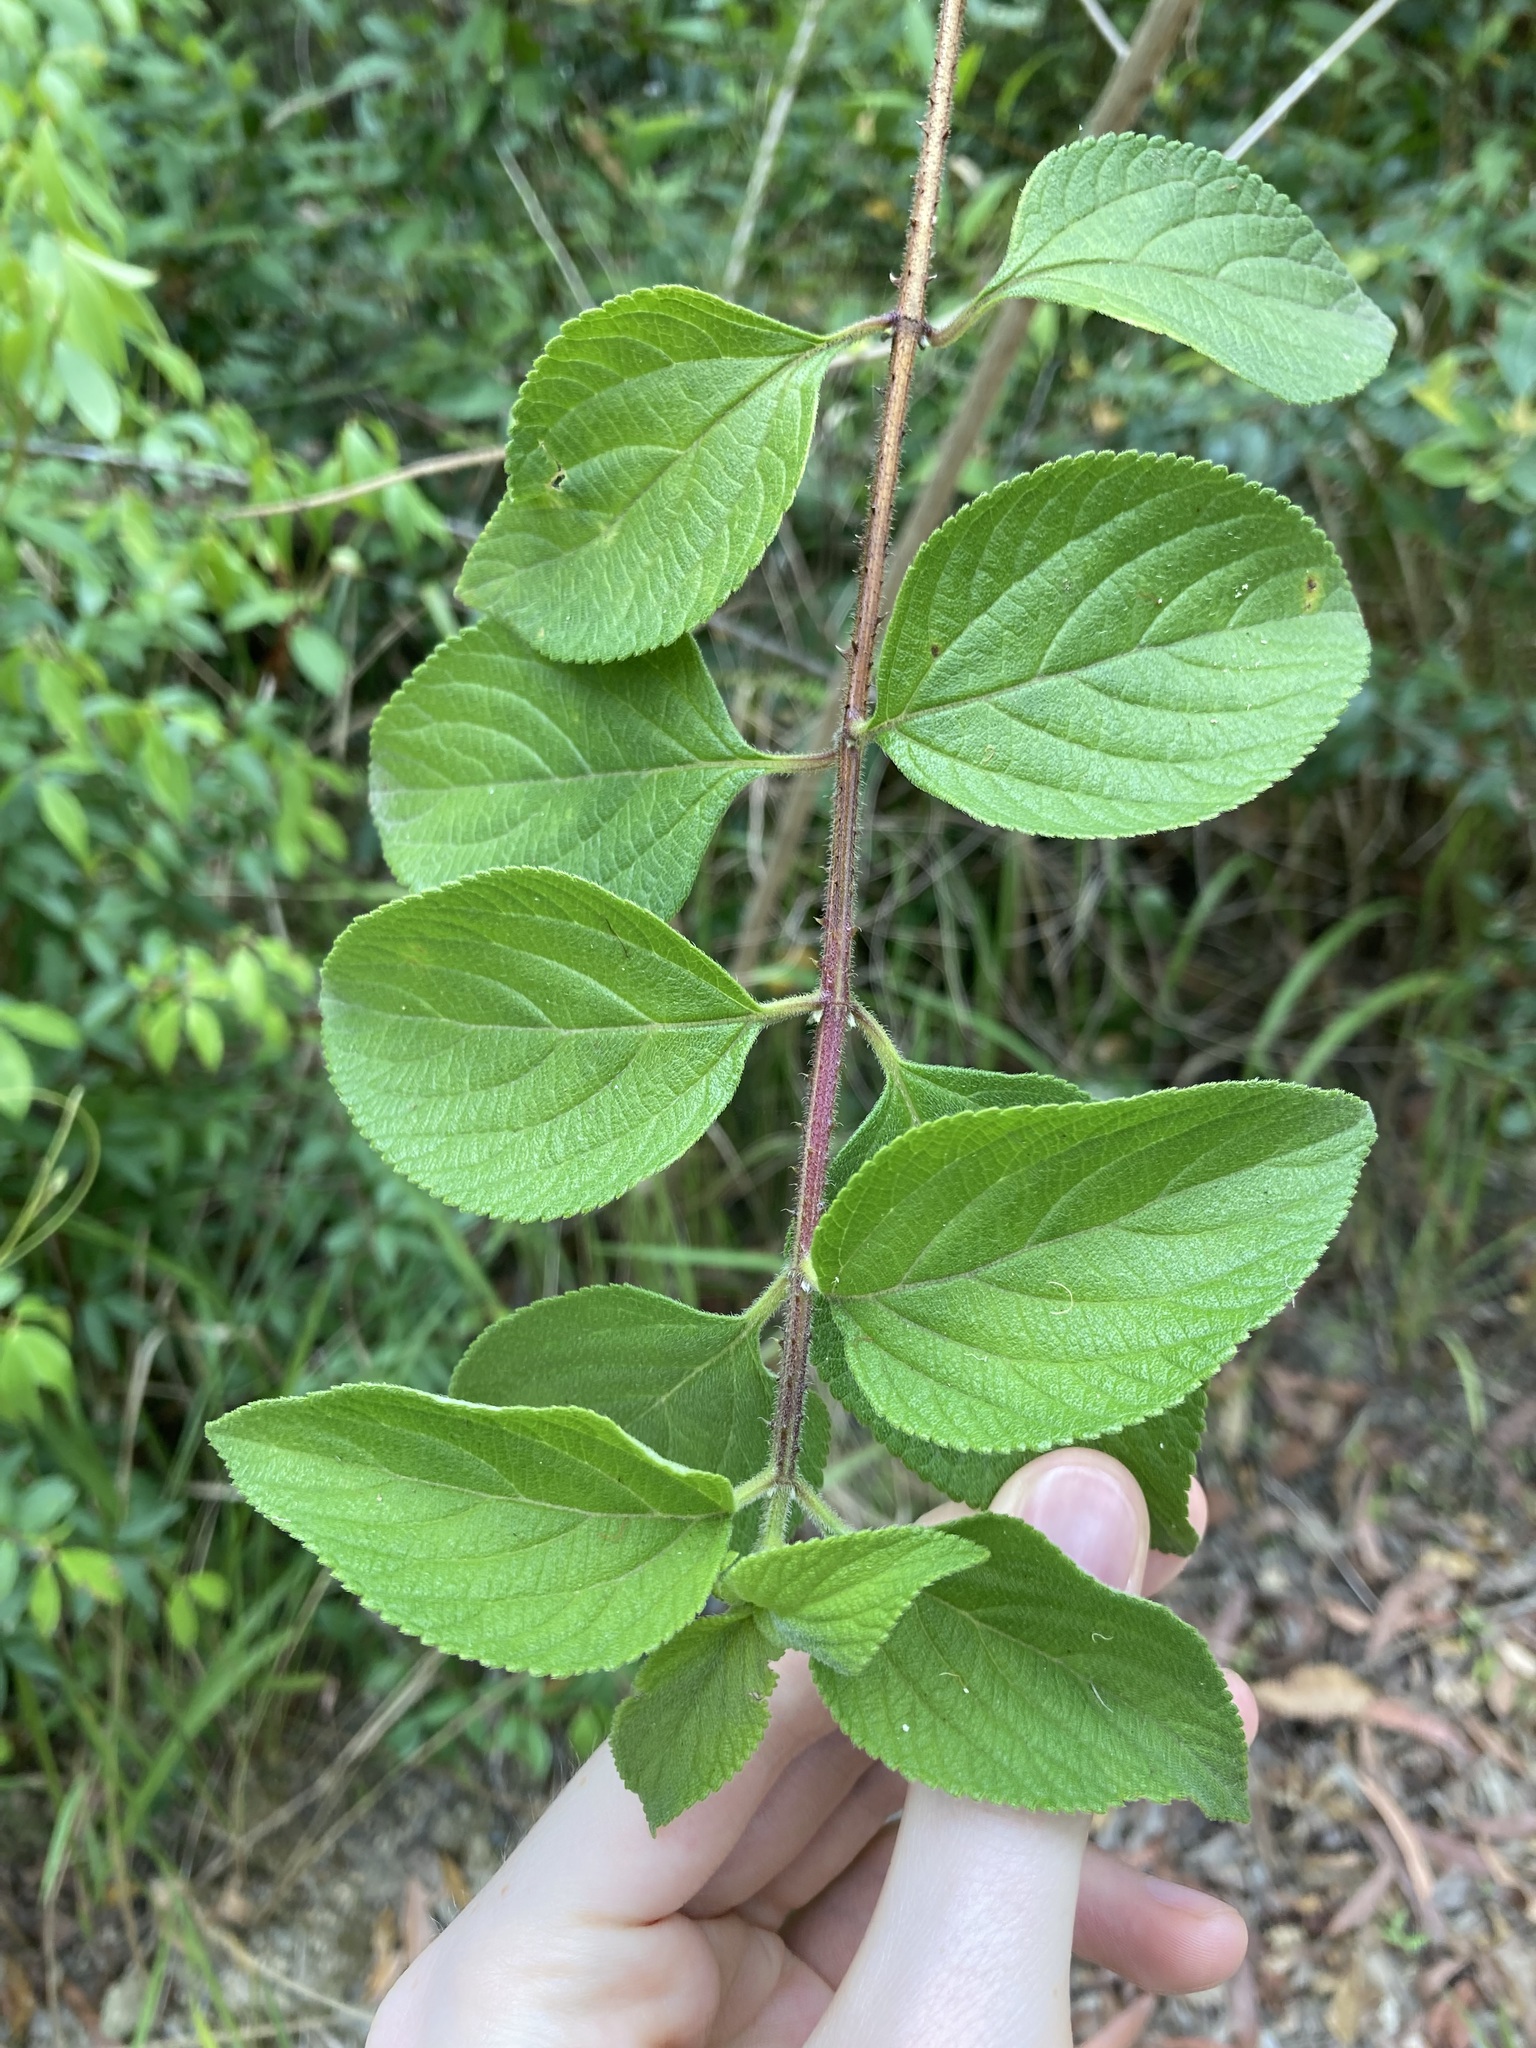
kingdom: Plantae
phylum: Tracheophyta
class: Magnoliopsida
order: Lamiales
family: Verbenaceae
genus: Lantana
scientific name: Lantana camara
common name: Lantana
